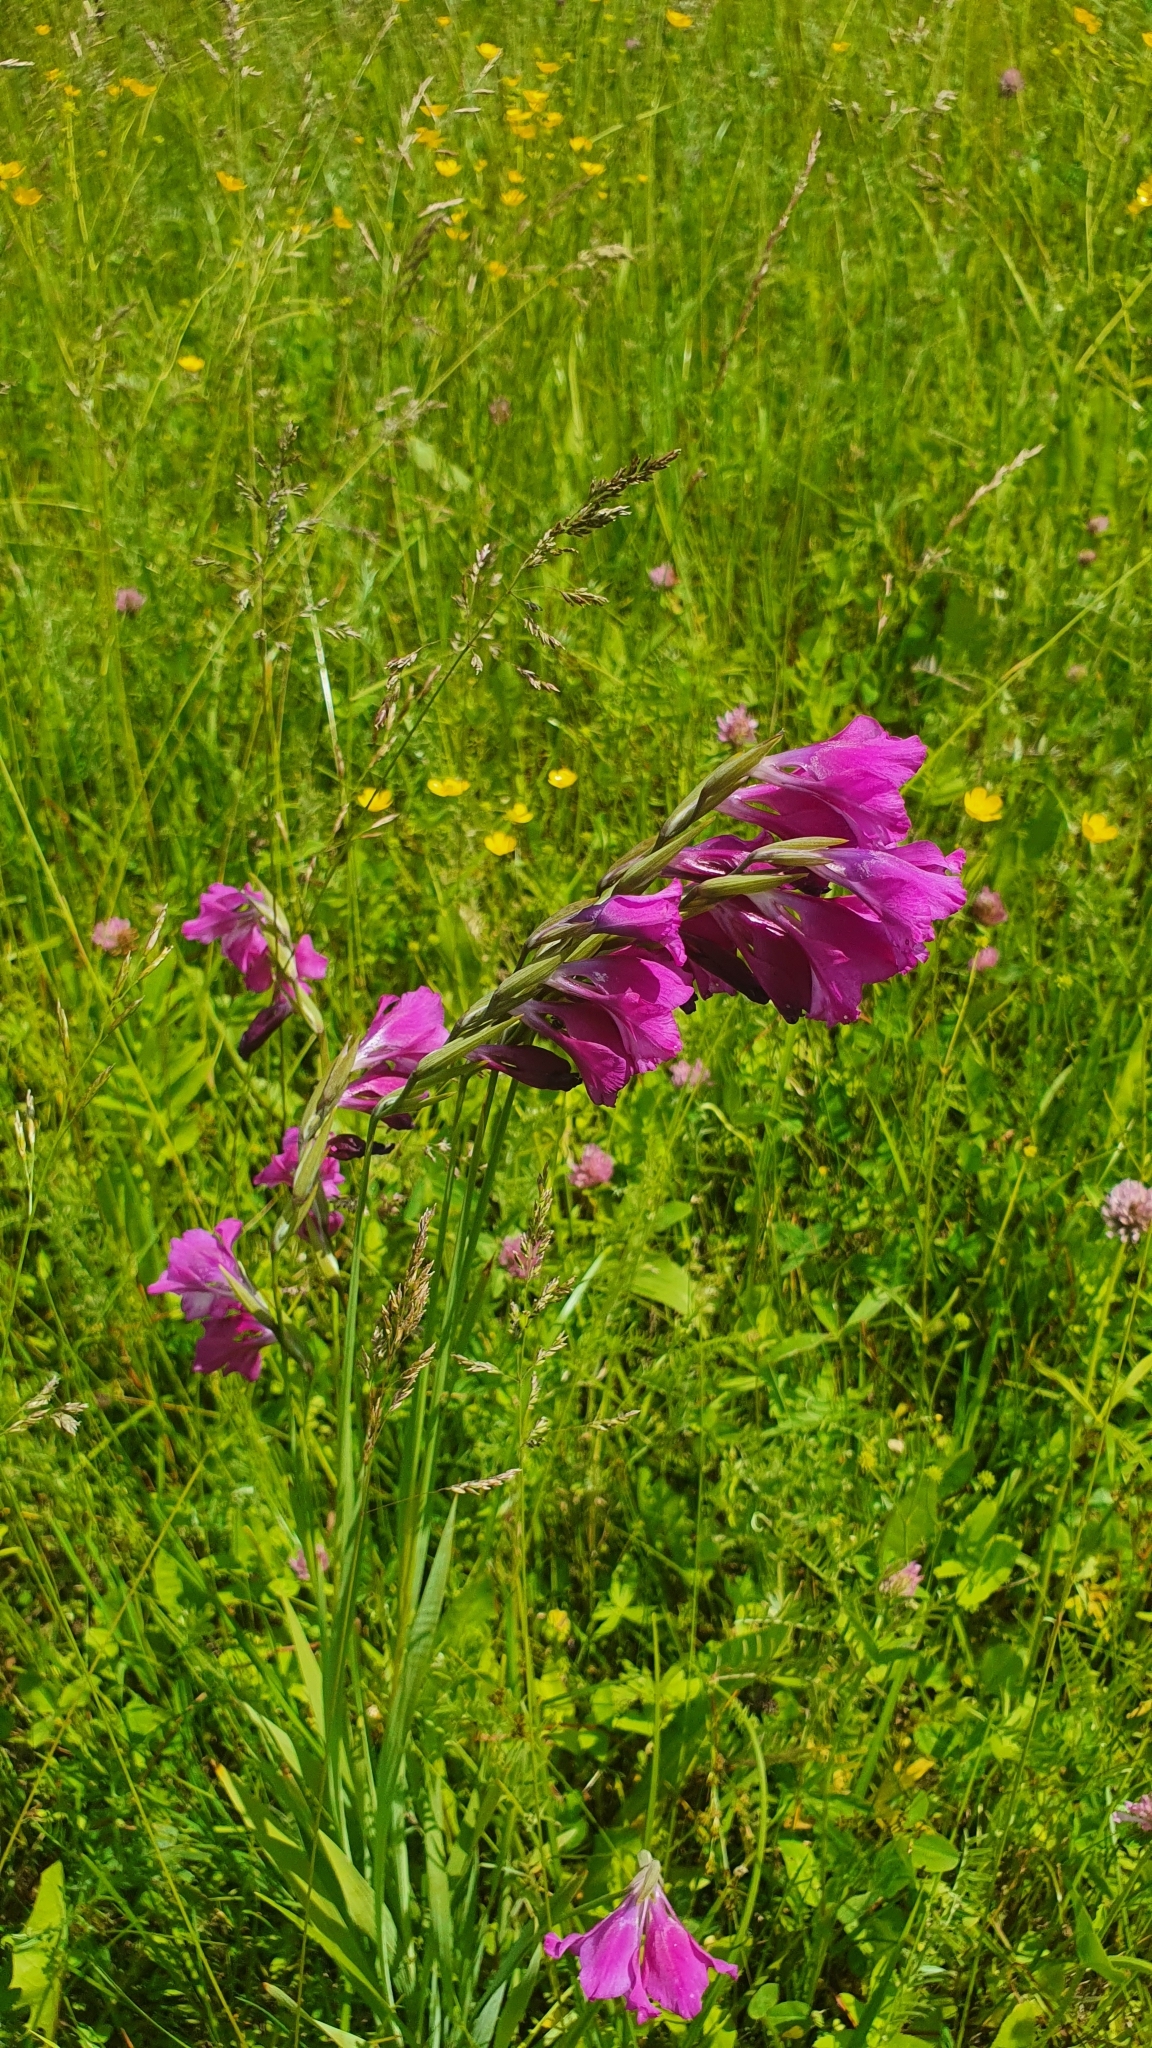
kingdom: Plantae
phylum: Tracheophyta
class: Liliopsida
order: Asparagales
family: Iridaceae
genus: Gladiolus
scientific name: Gladiolus tenuis
